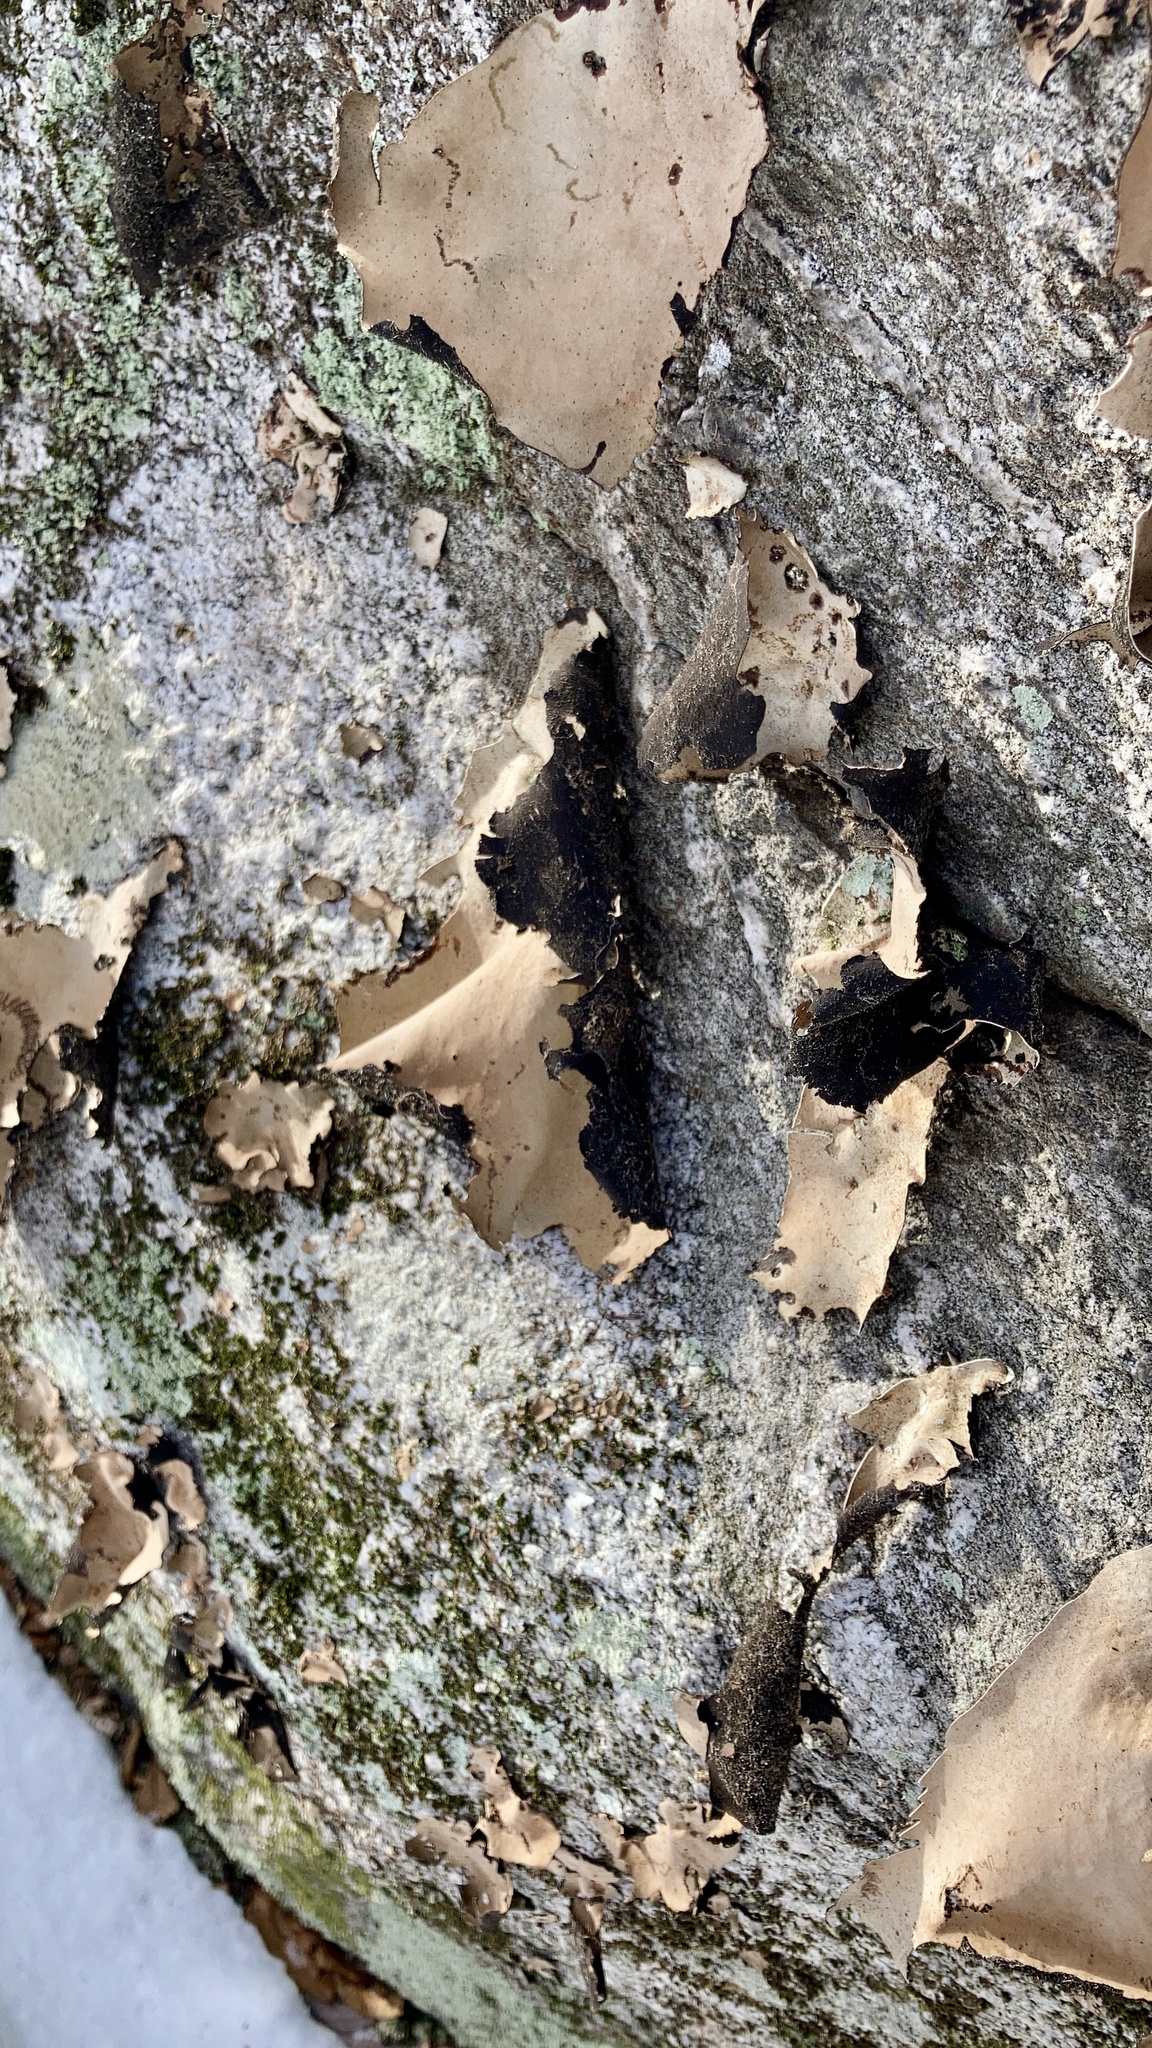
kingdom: Fungi
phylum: Ascomycota
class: Lecanoromycetes
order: Umbilicariales
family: Umbilicariaceae
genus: Umbilicaria
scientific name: Umbilicaria mammulata
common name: Smooth rock tripe
